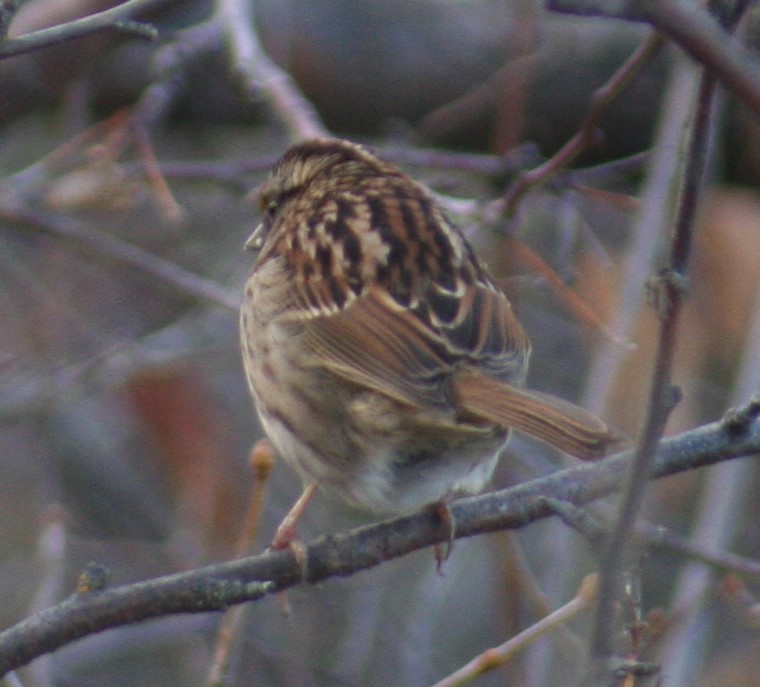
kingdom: Animalia
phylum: Chordata
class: Aves
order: Passeriformes
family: Passerellidae
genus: Zonotrichia
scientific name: Zonotrichia albicollis
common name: White-throated sparrow
